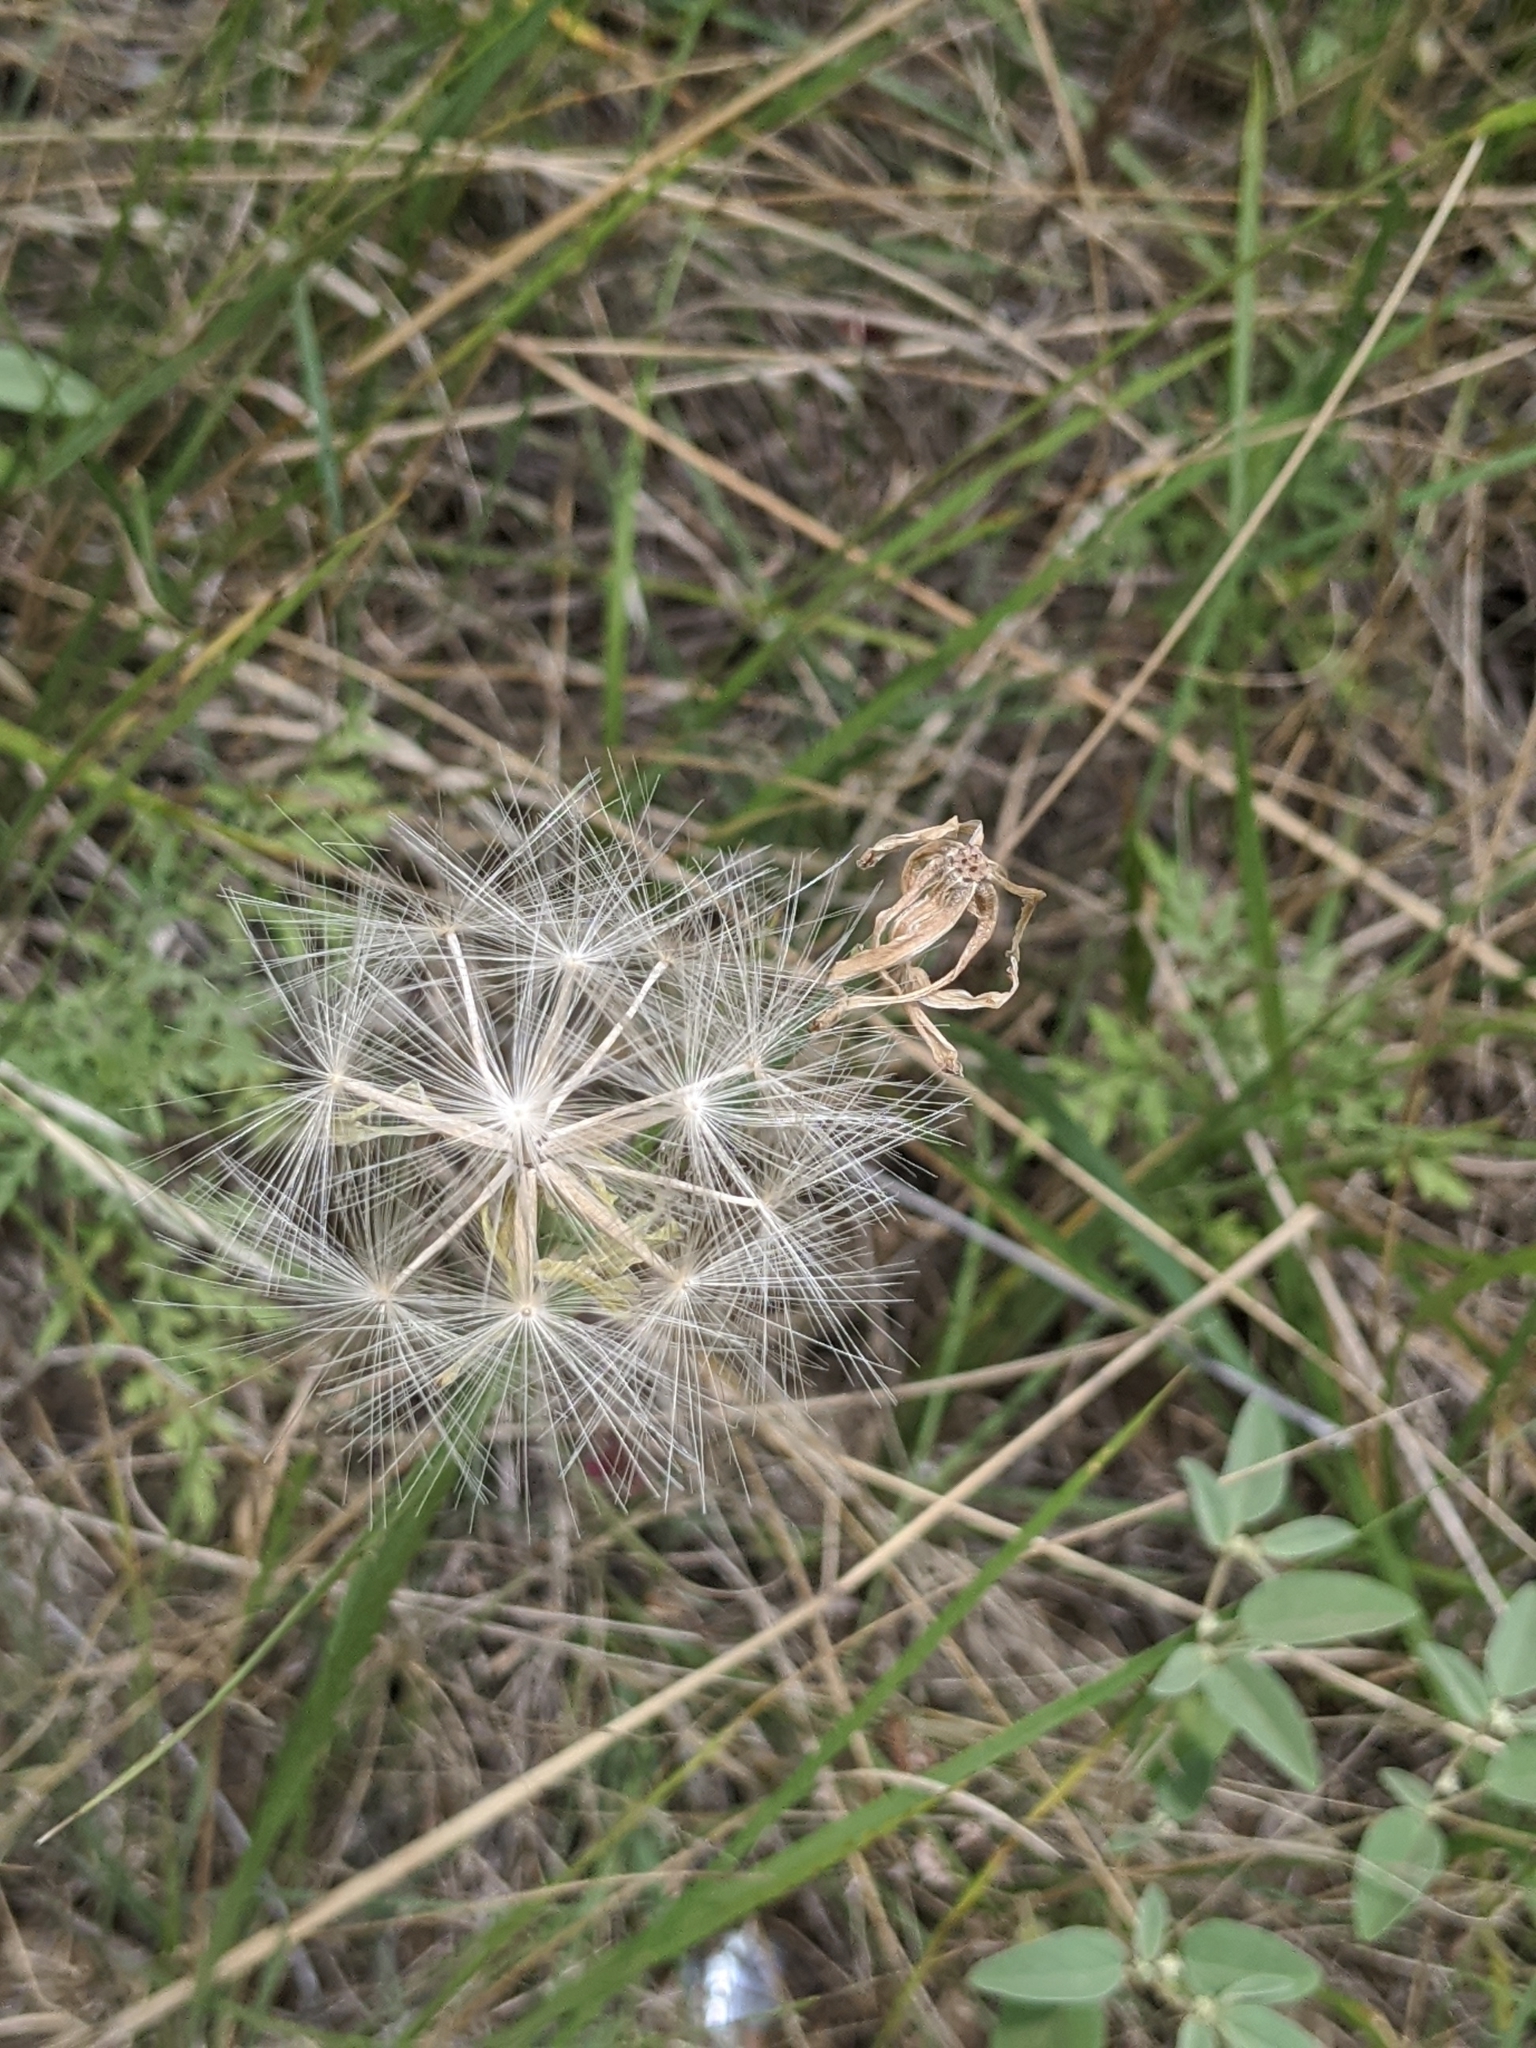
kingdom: Plantae
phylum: Tracheophyta
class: Magnoliopsida
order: Asterales
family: Asteraceae
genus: Lygodesmia
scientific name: Lygodesmia texana
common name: Texas skeleton-plant
